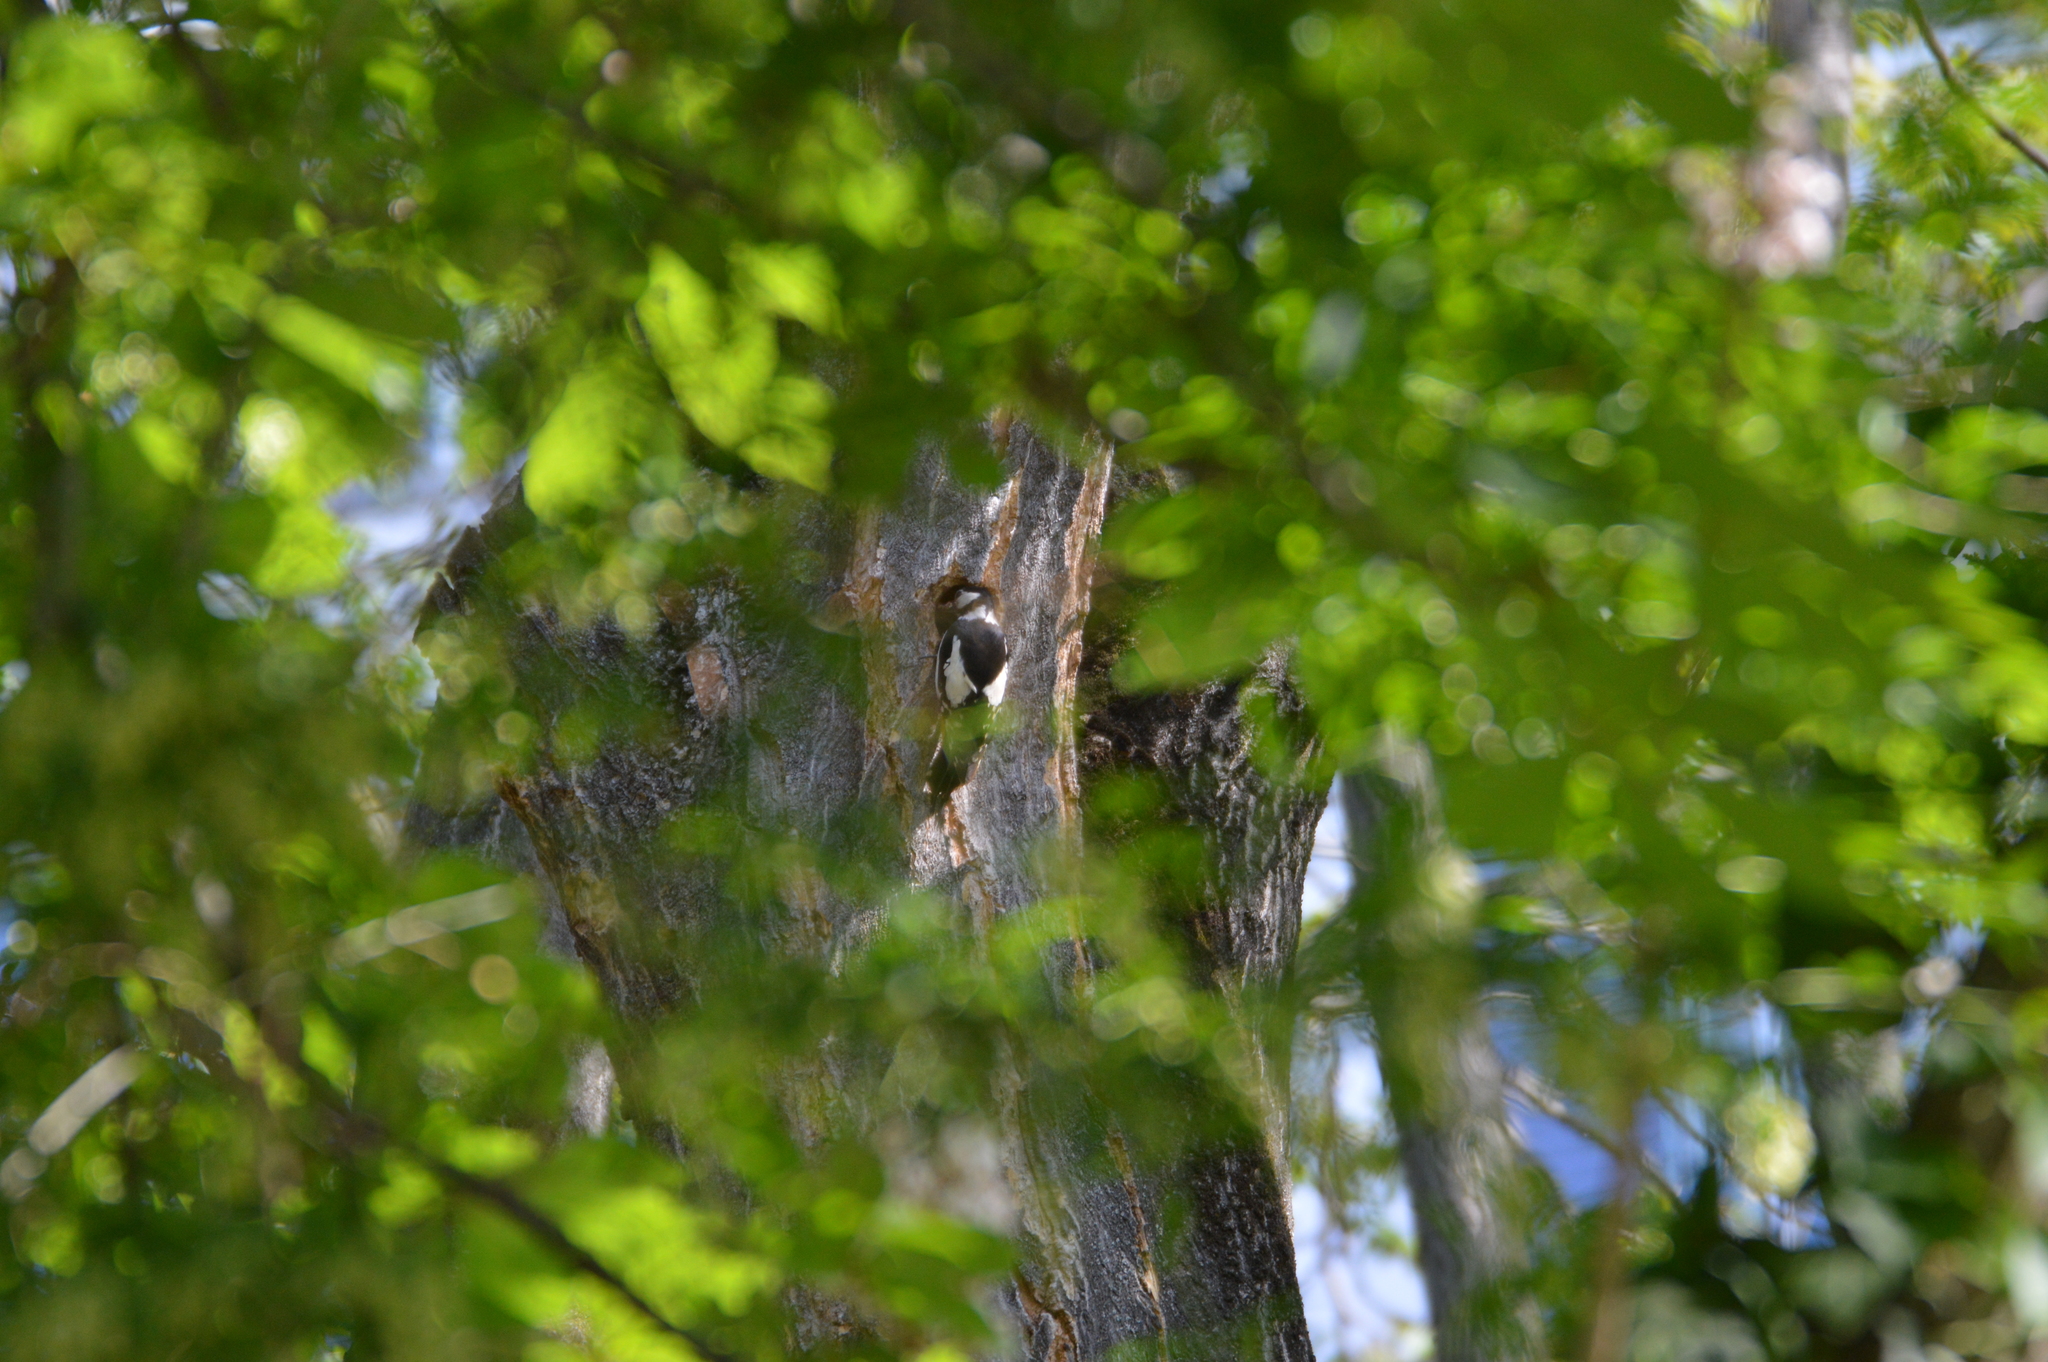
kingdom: Animalia
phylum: Chordata
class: Aves
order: Piciformes
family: Picidae
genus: Dendrocopos
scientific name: Dendrocopos major
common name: Great spotted woodpecker
